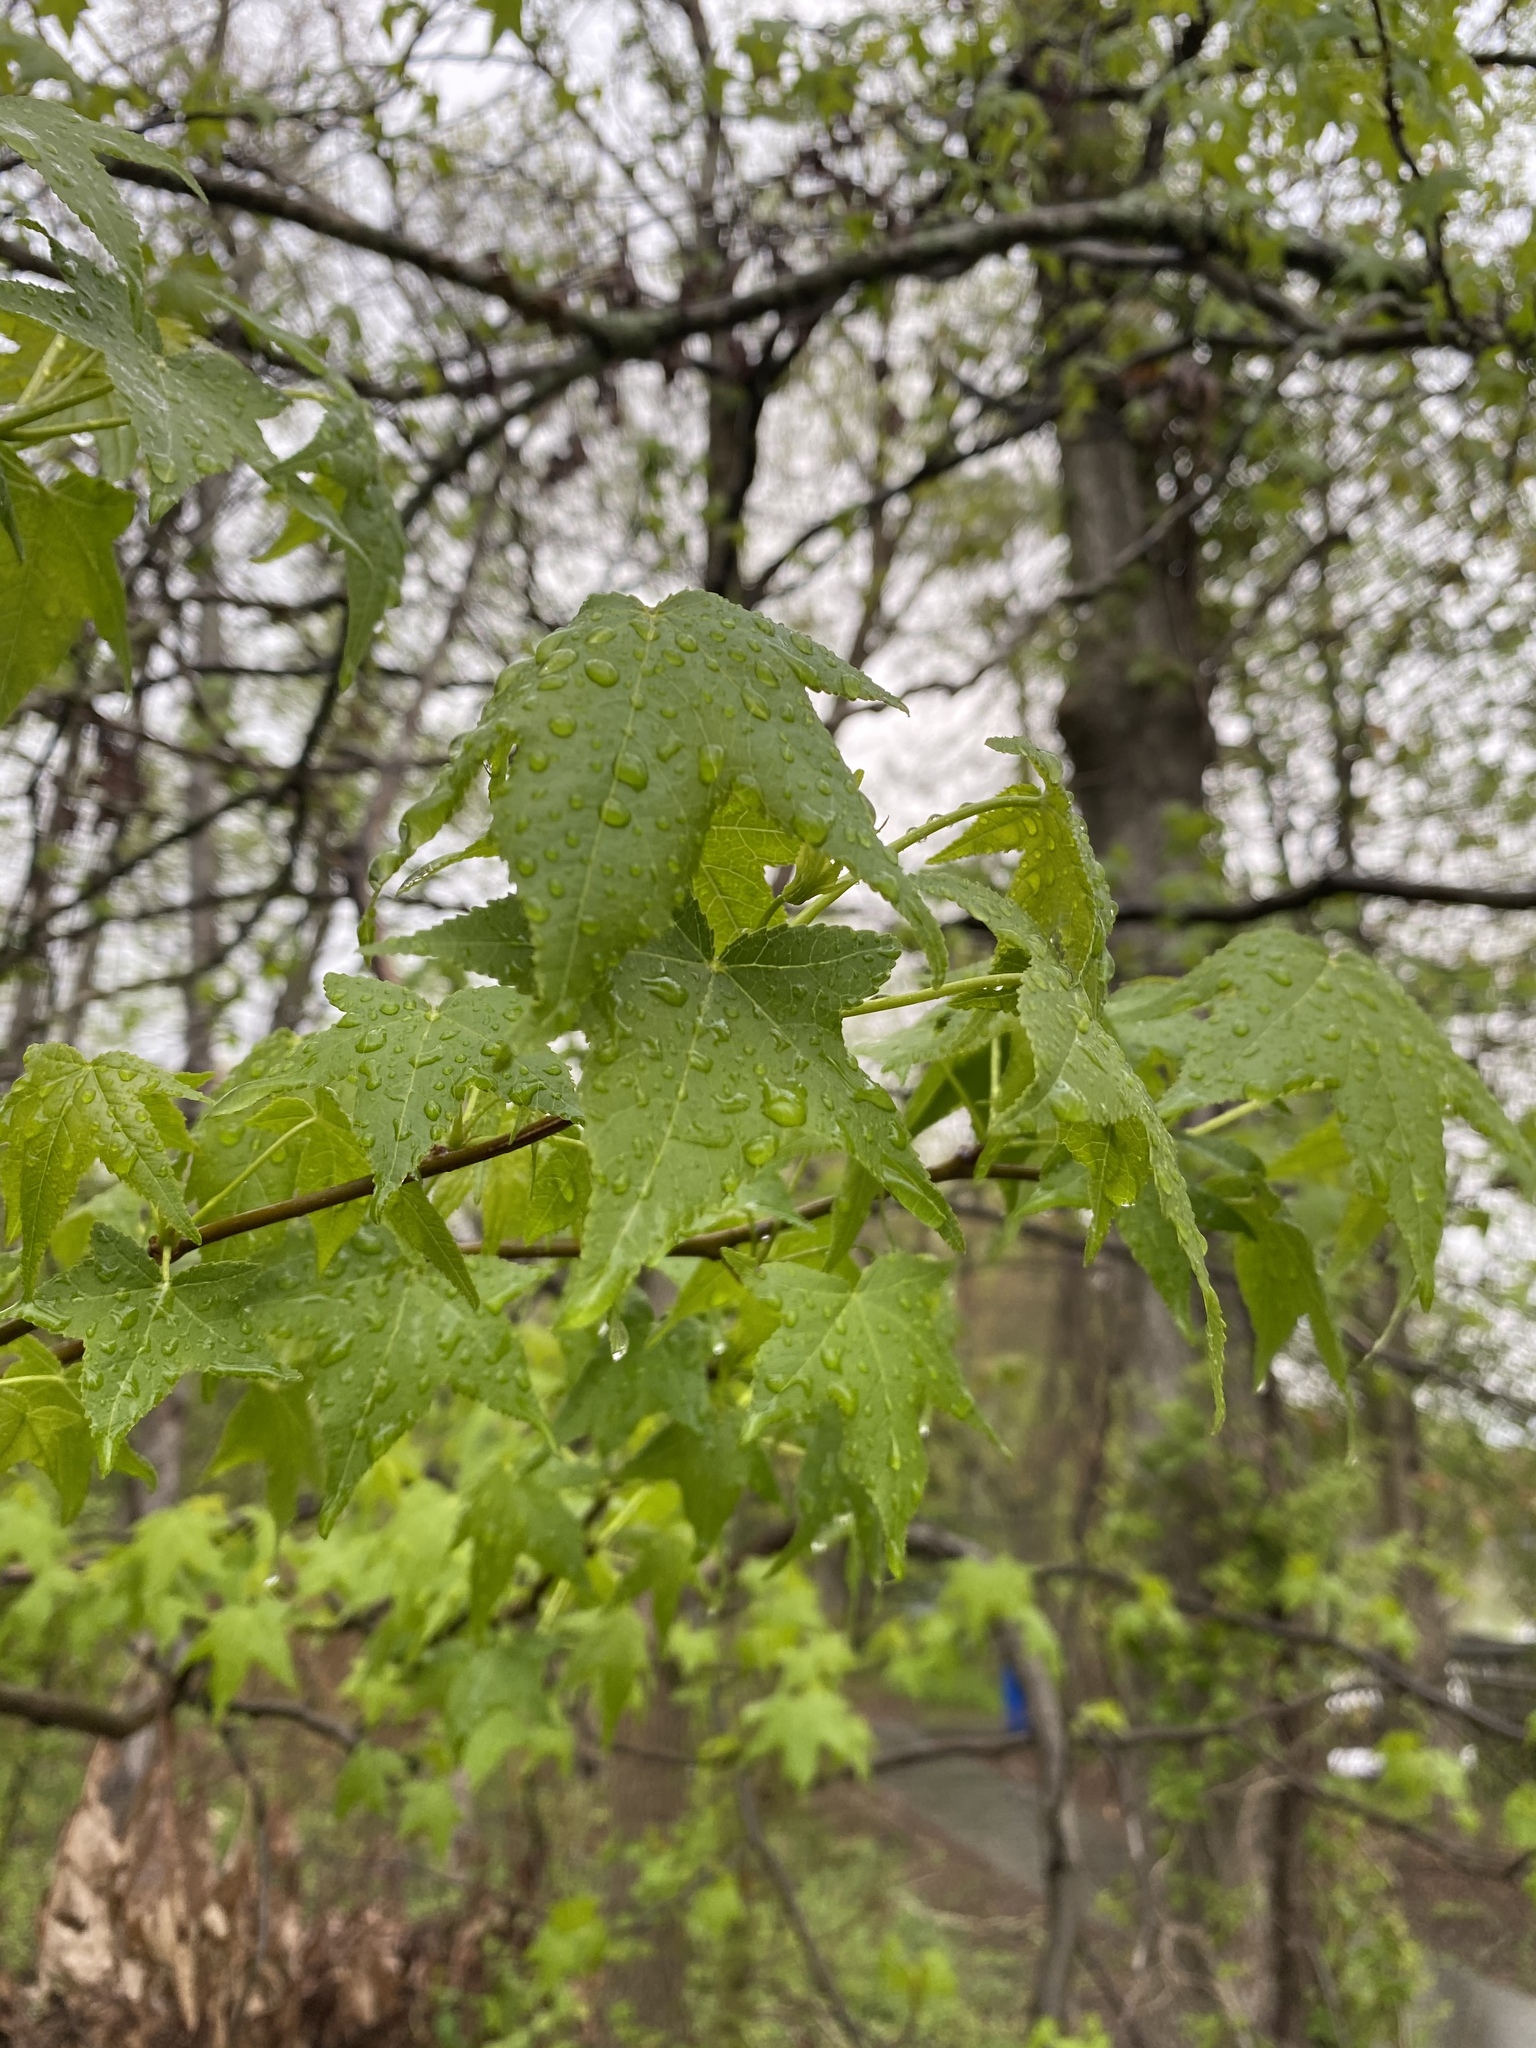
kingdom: Plantae
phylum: Tracheophyta
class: Magnoliopsida
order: Saxifragales
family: Altingiaceae
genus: Liquidambar
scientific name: Liquidambar styraciflua
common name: Sweet gum
